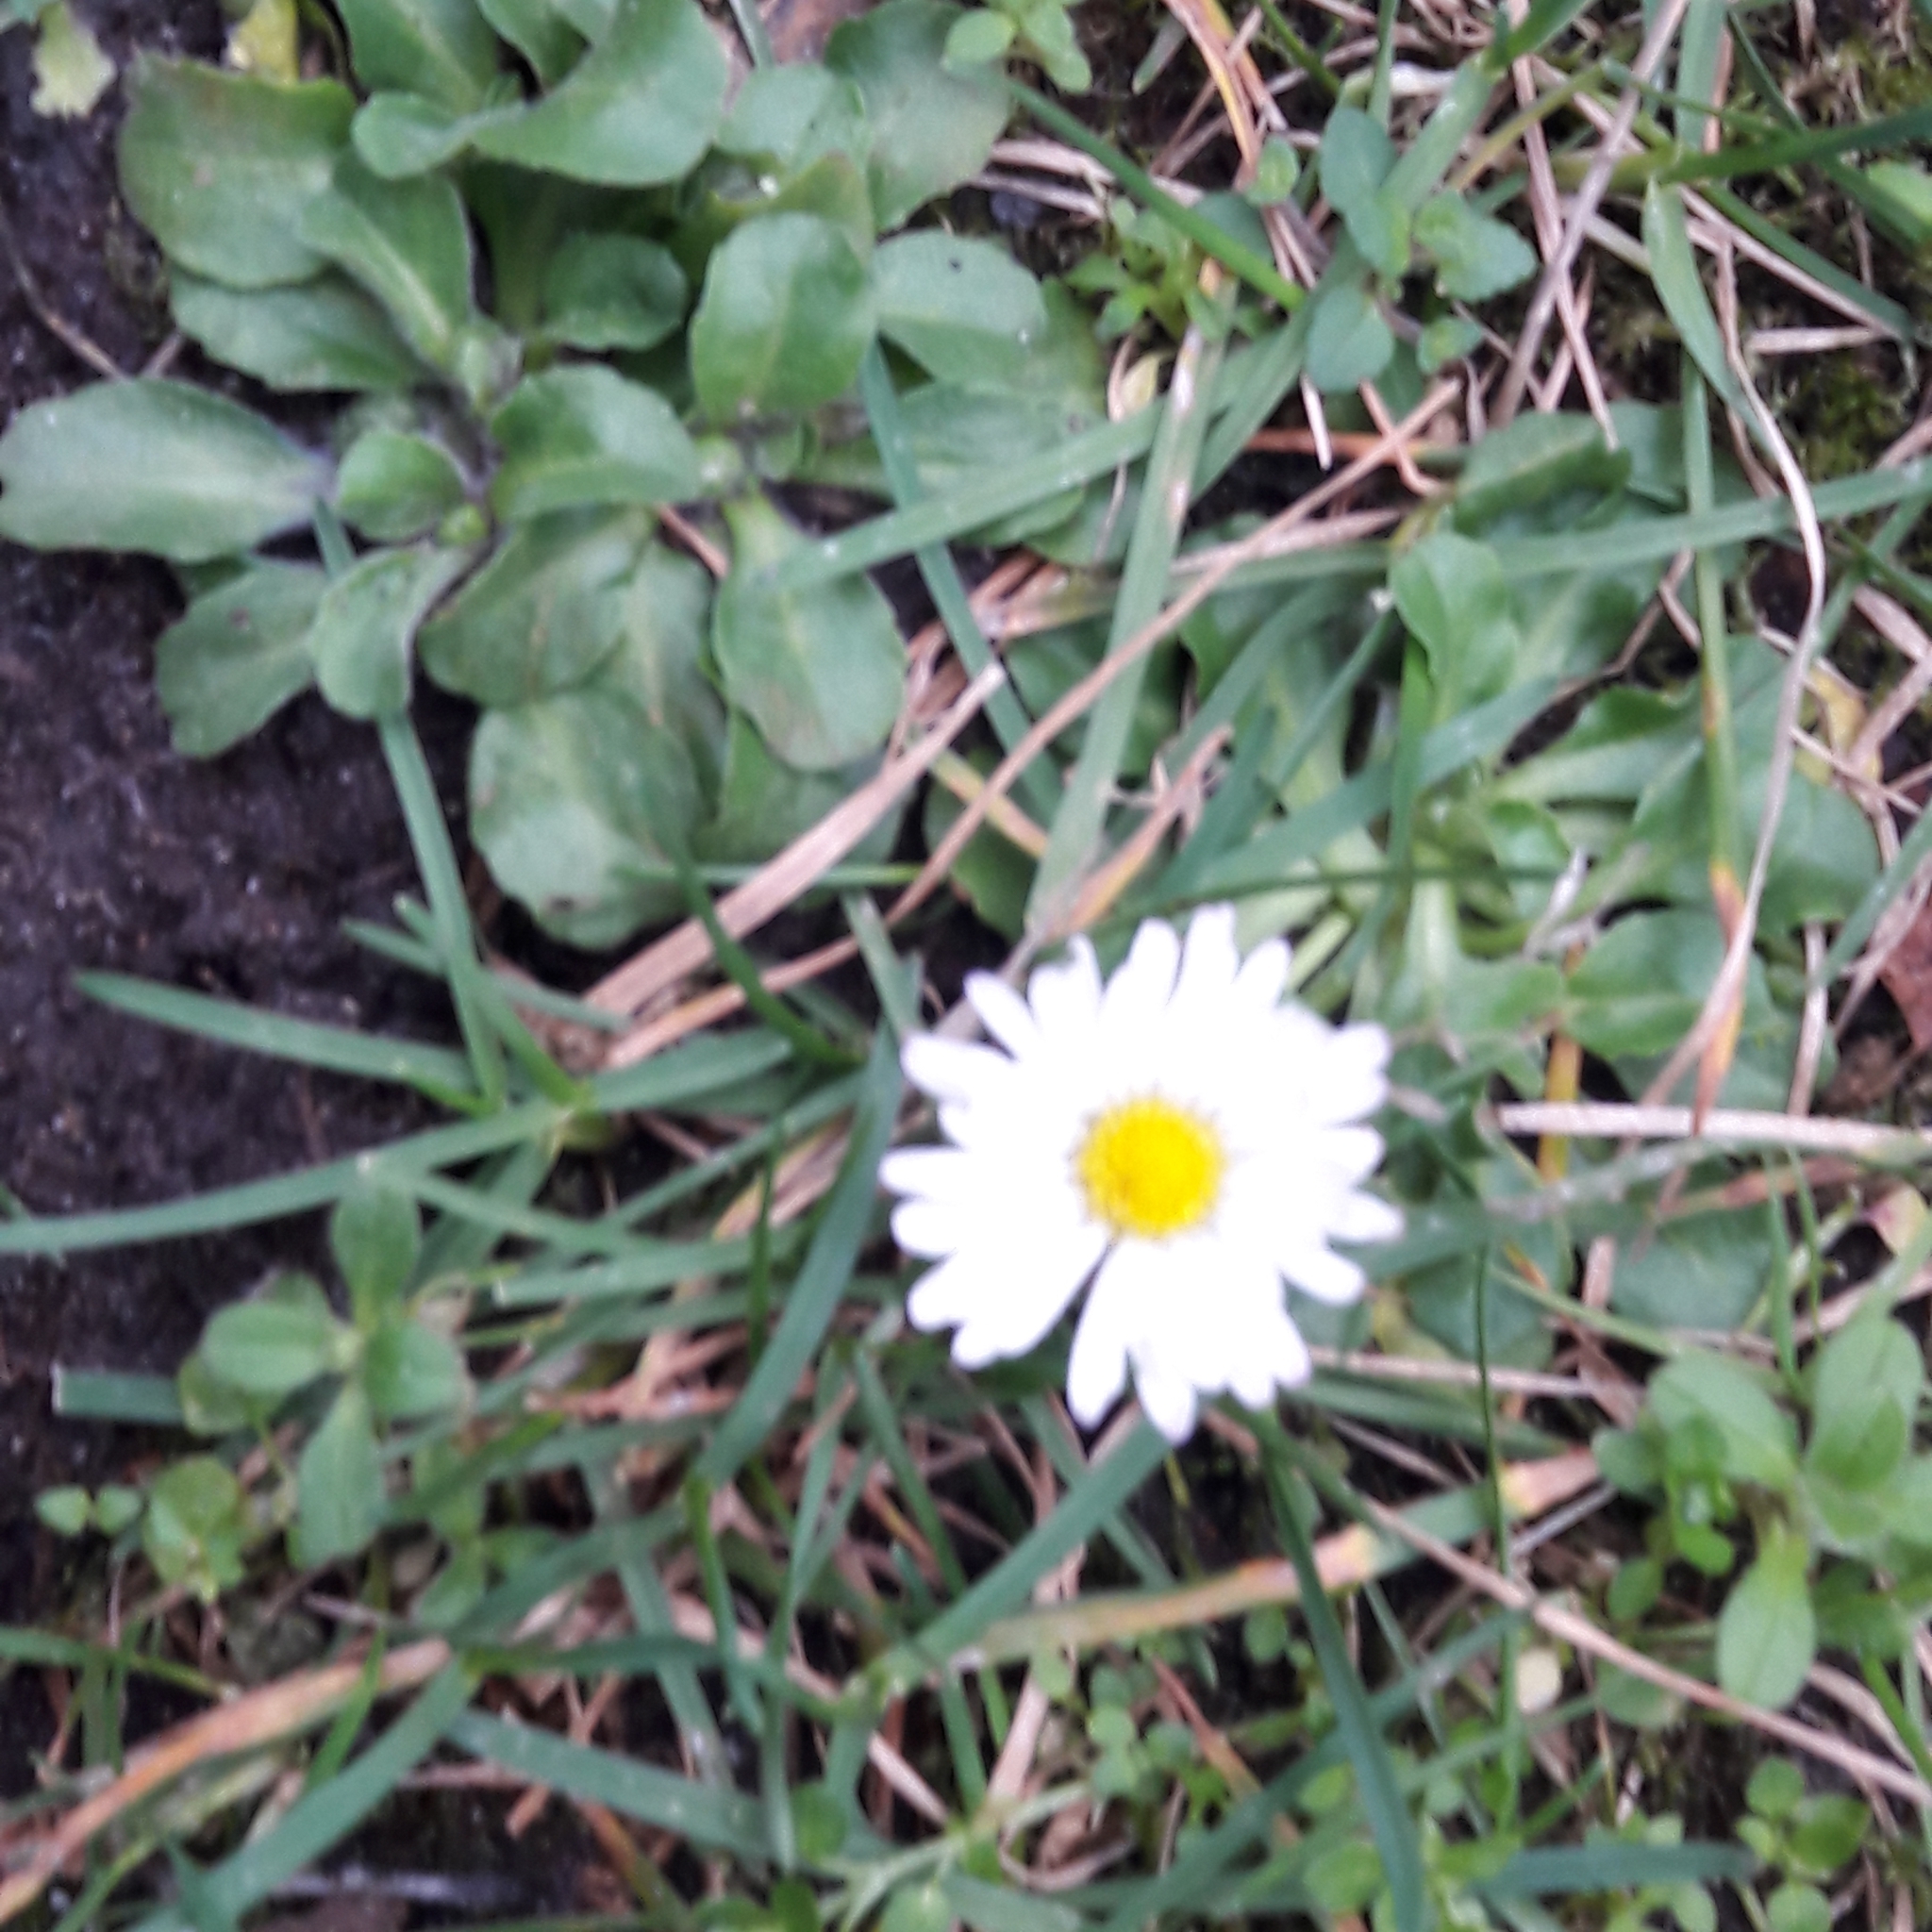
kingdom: Plantae
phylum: Tracheophyta
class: Magnoliopsida
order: Asterales
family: Asteraceae
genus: Bellis
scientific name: Bellis perennis
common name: Lawndaisy
